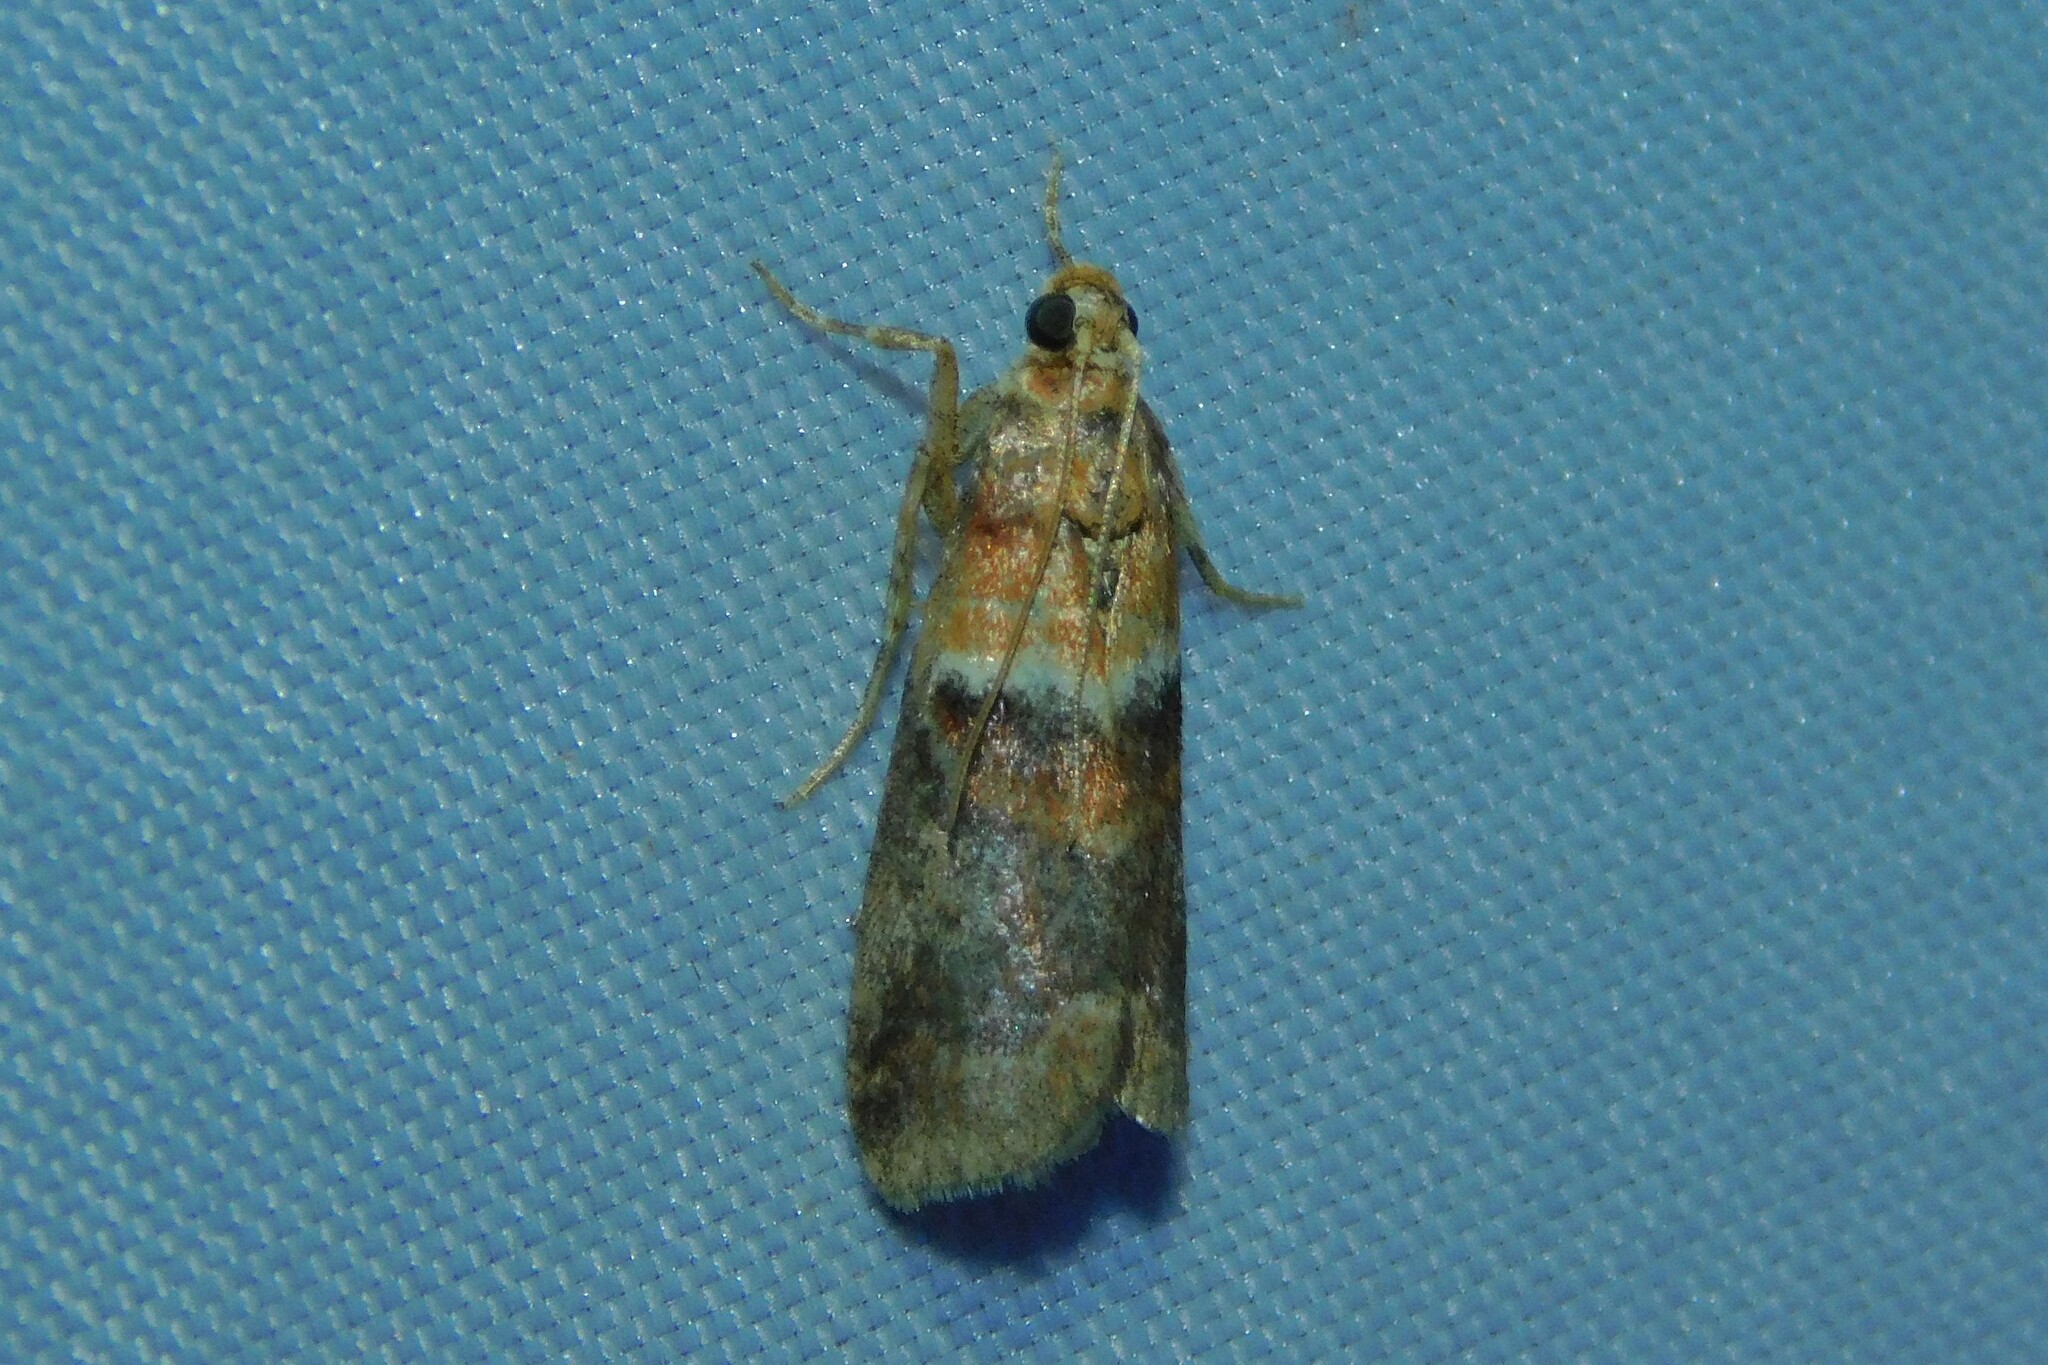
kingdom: Animalia
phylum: Arthropoda
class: Insecta
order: Lepidoptera
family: Pyralidae
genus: Acrobasis
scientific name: Acrobasis repandana
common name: Warted knot-horn
